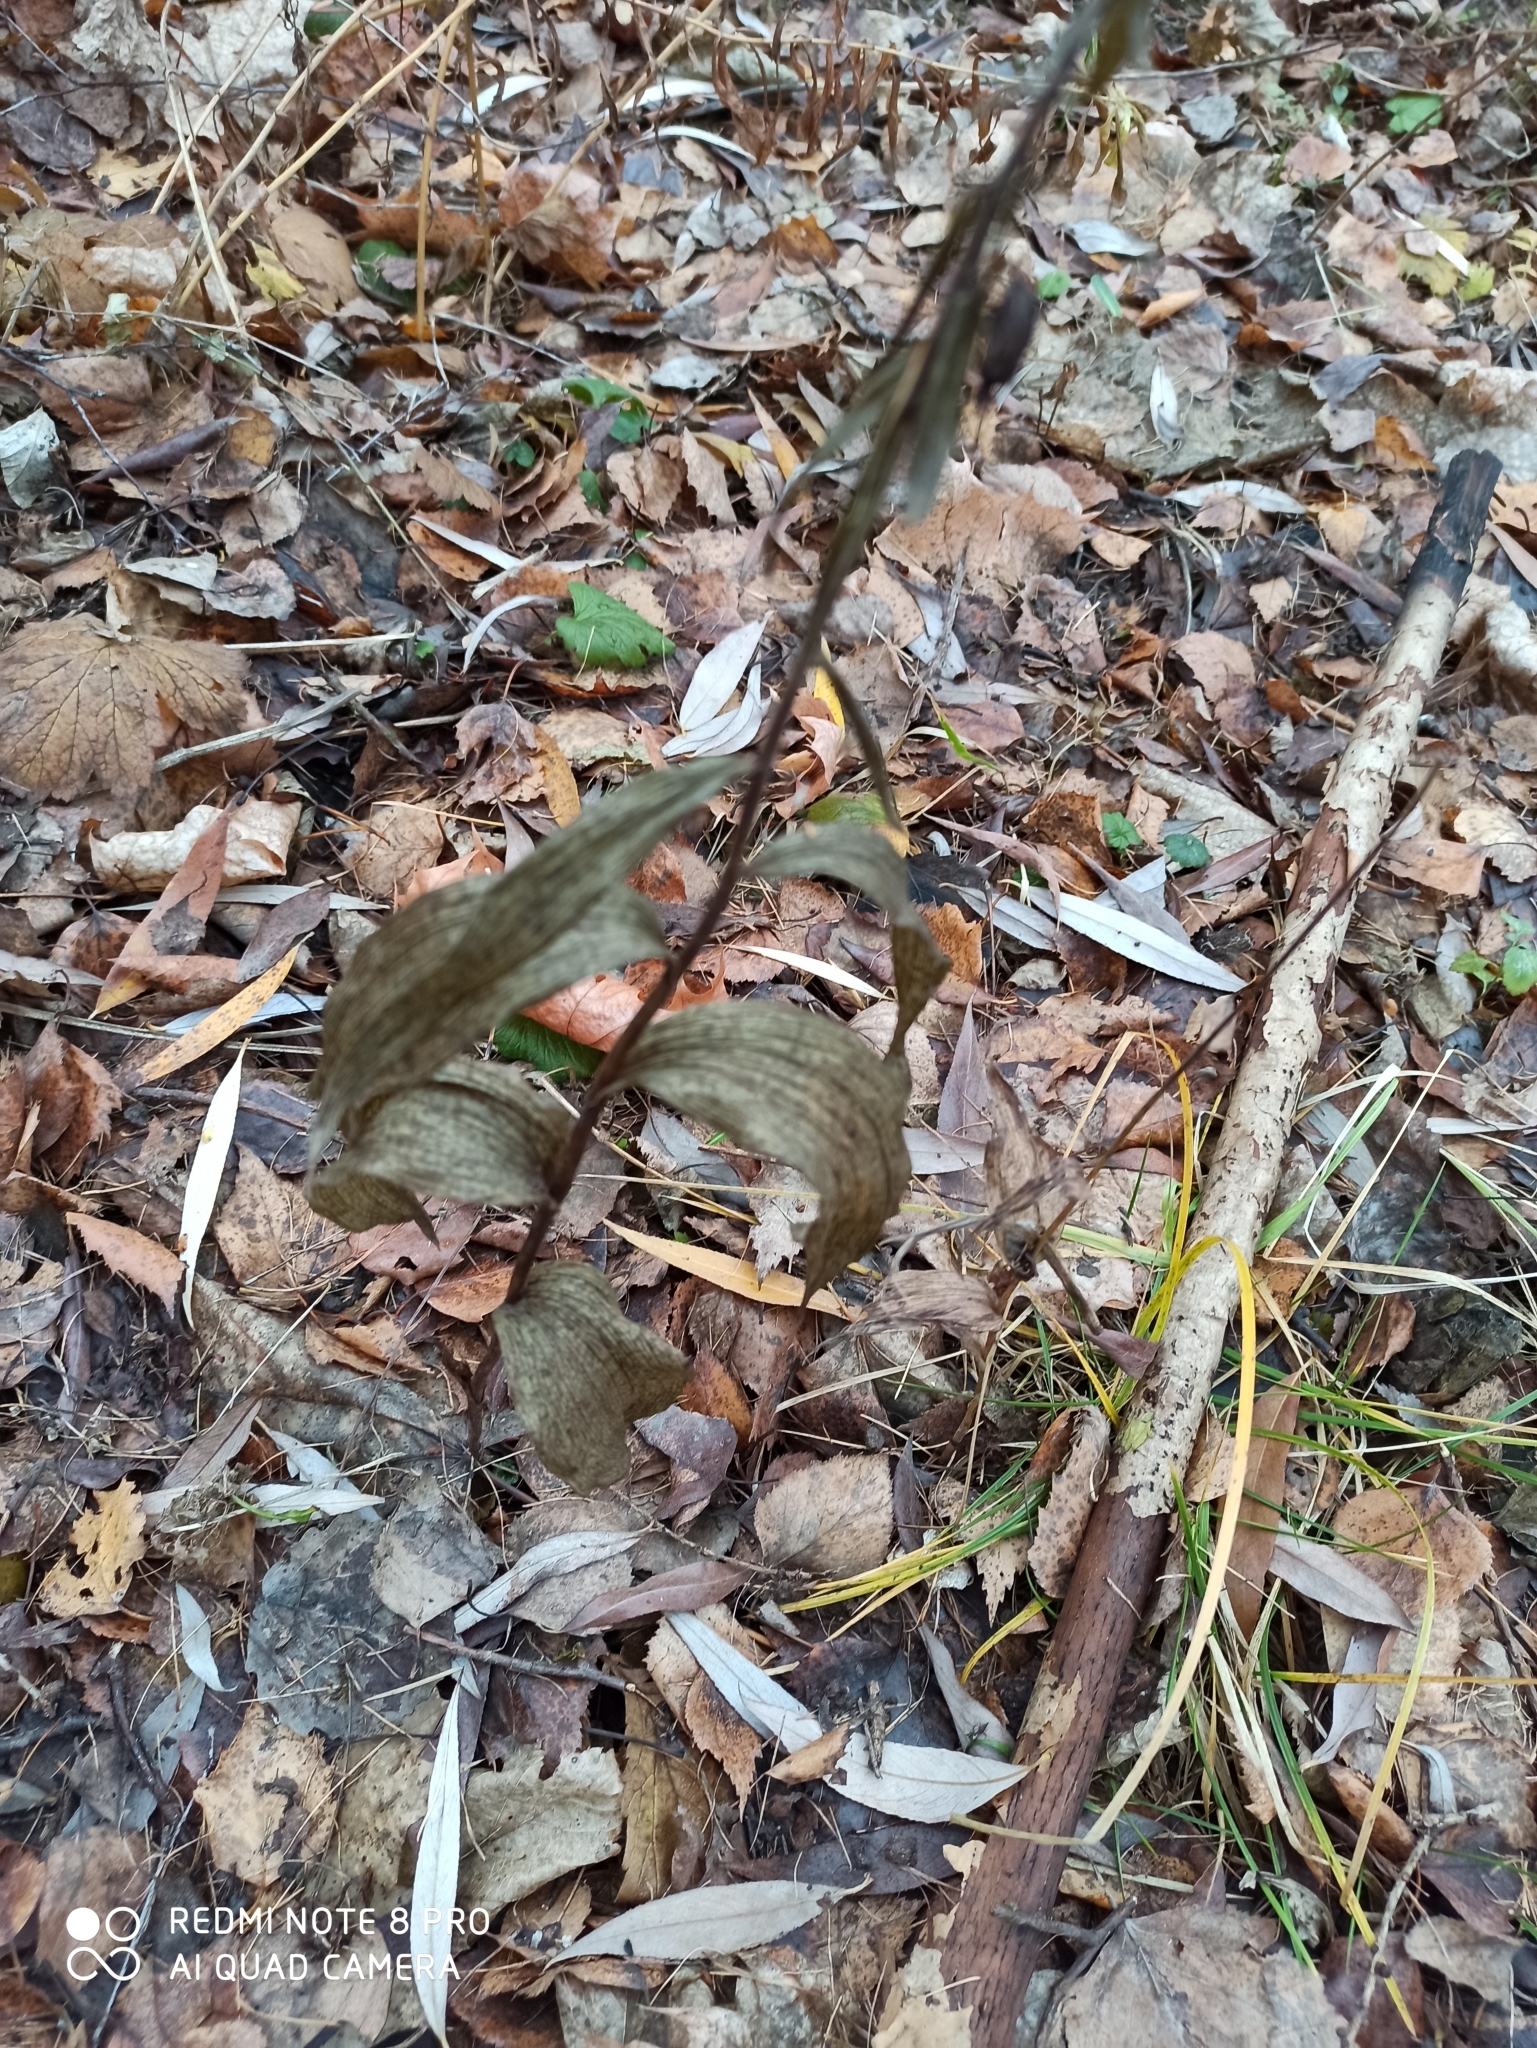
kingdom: Plantae
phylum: Tracheophyta
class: Liliopsida
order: Asparagales
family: Orchidaceae
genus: Epipactis
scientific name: Epipactis helleborine
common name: Broad-leaved helleborine
